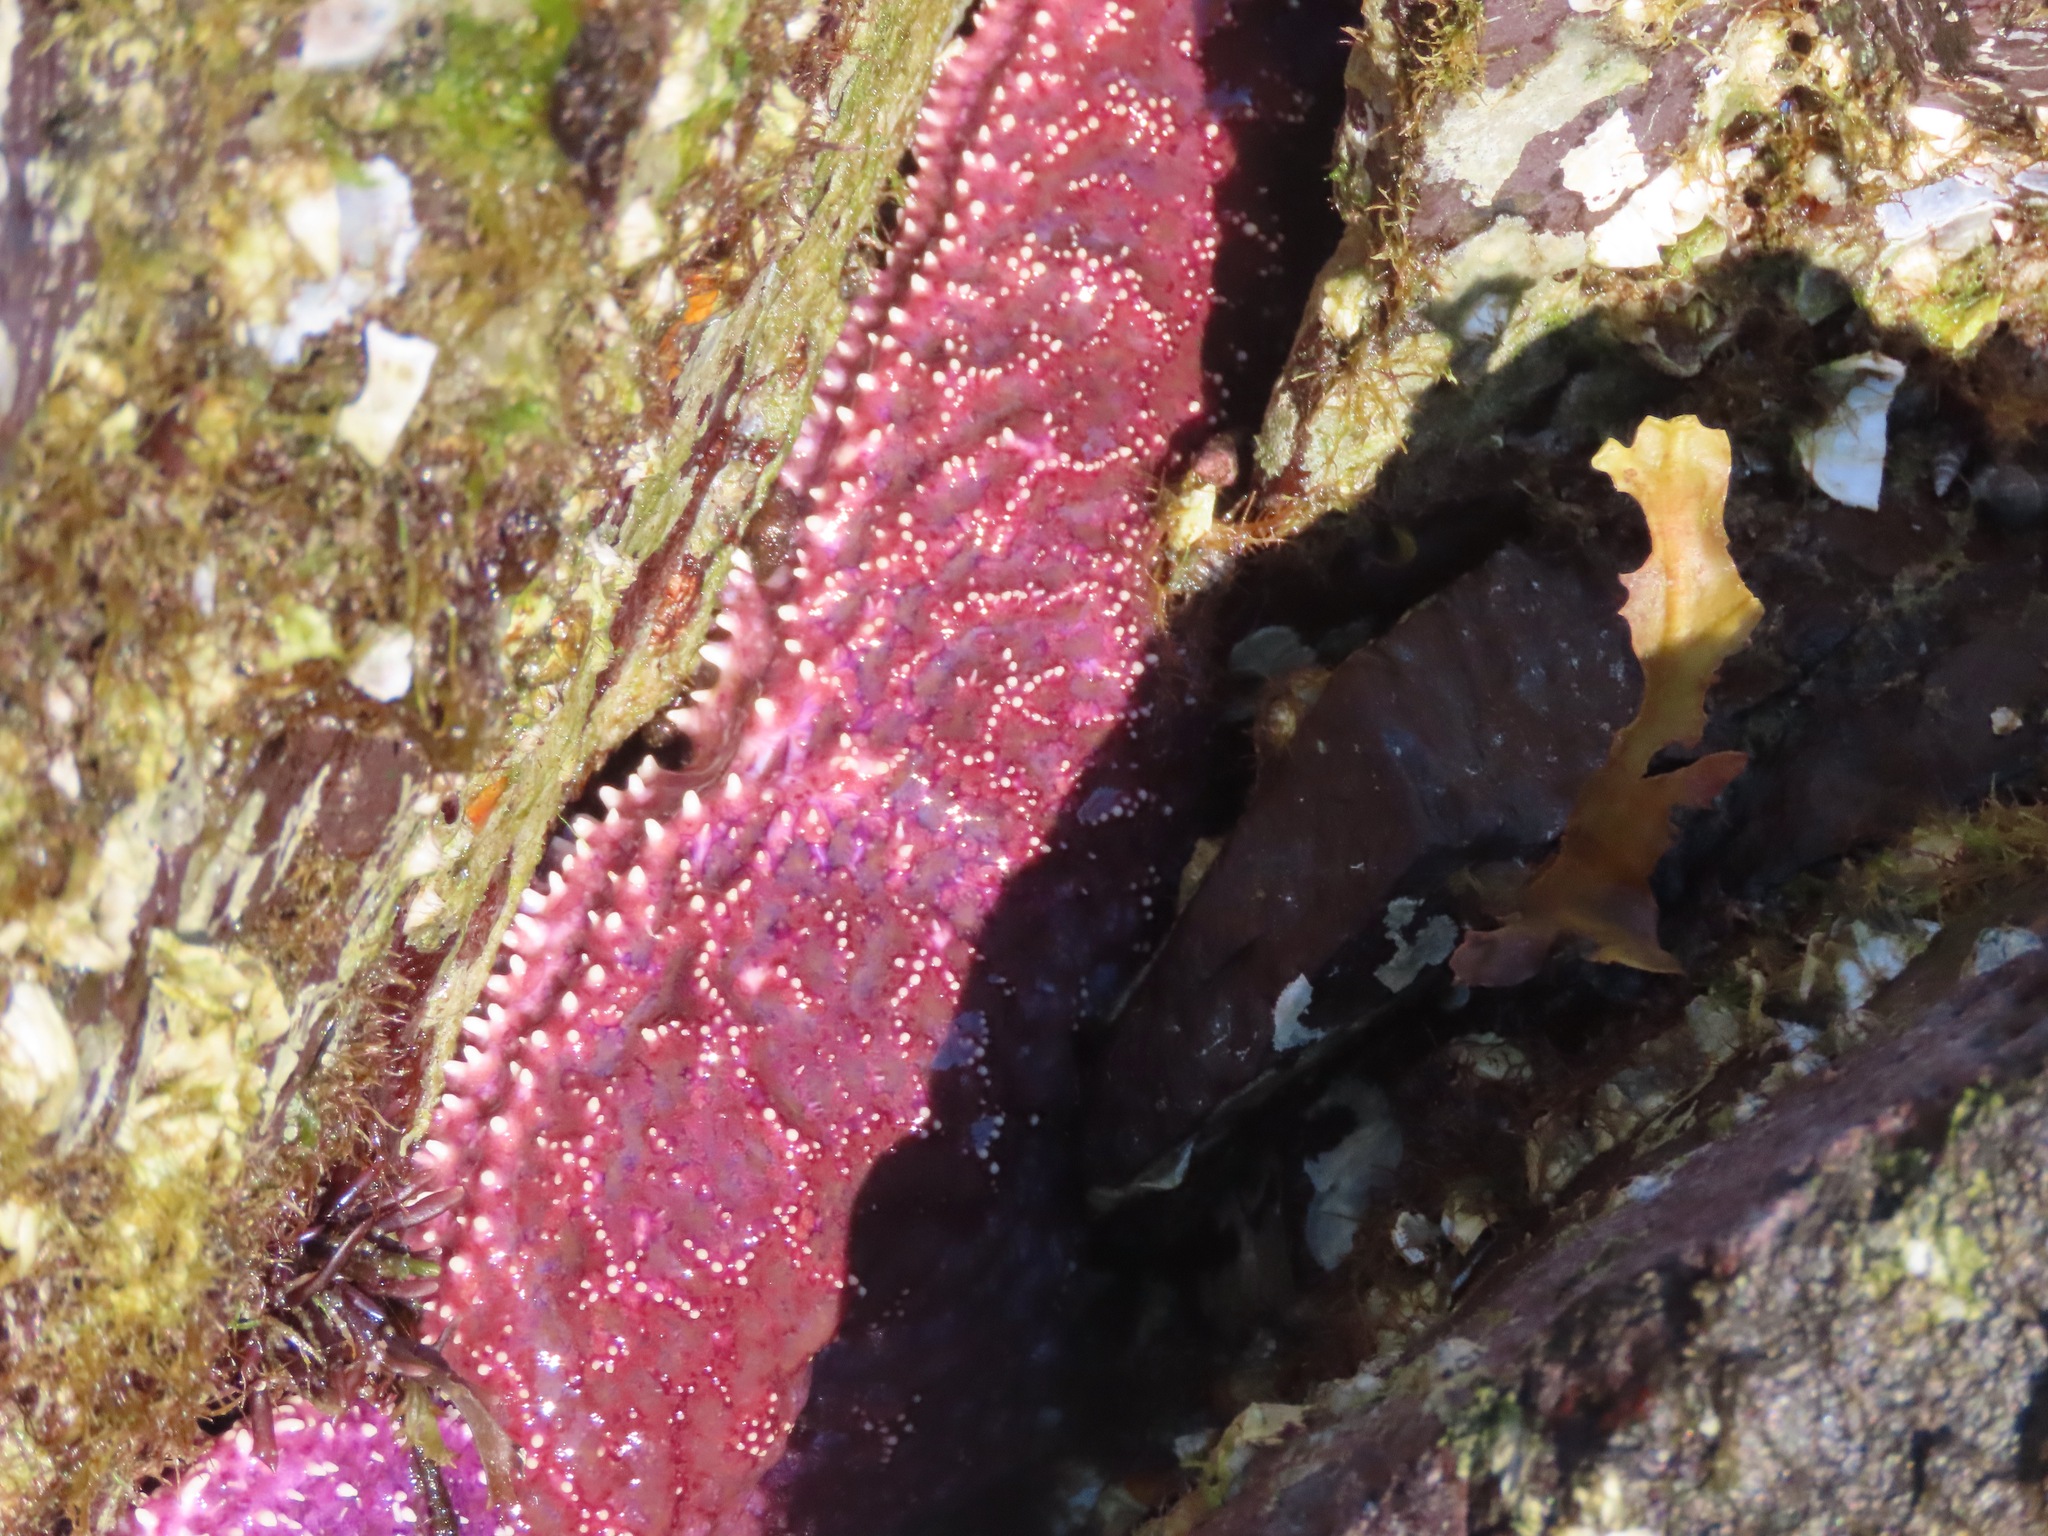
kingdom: Animalia
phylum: Echinodermata
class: Asteroidea
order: Forcipulatida
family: Asteriidae
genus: Pisaster
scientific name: Pisaster ochraceus
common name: Ochre stars
